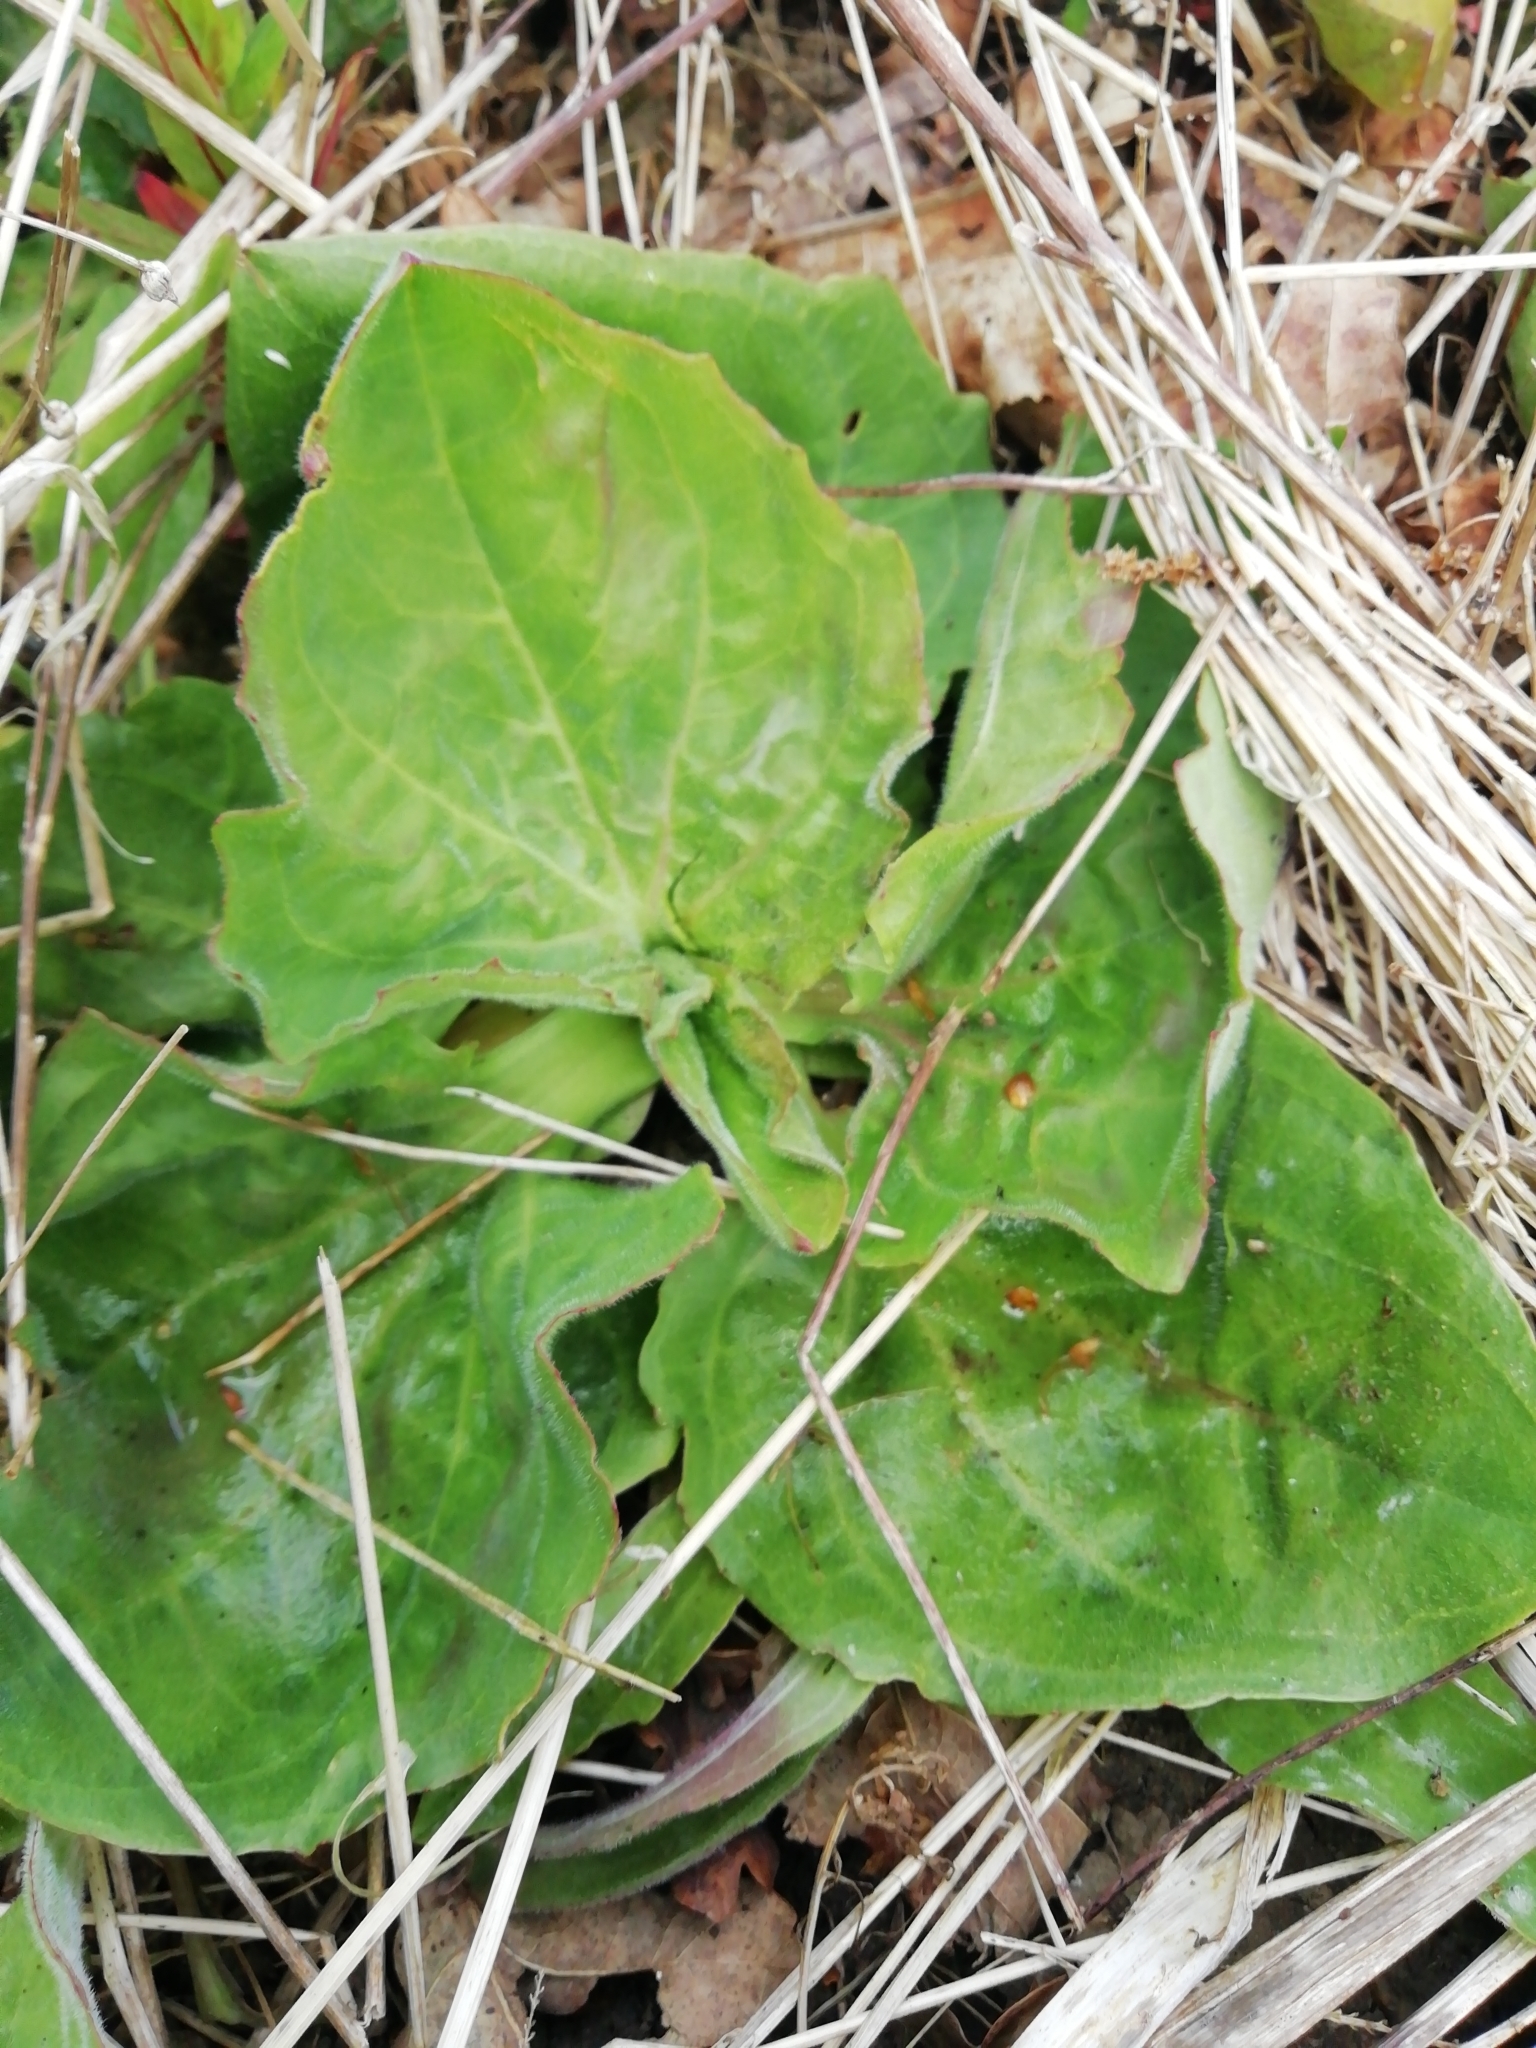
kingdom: Plantae
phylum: Tracheophyta
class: Magnoliopsida
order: Lamiales
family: Plantaginaceae
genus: Plantago
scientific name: Plantago major
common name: Common plantain
